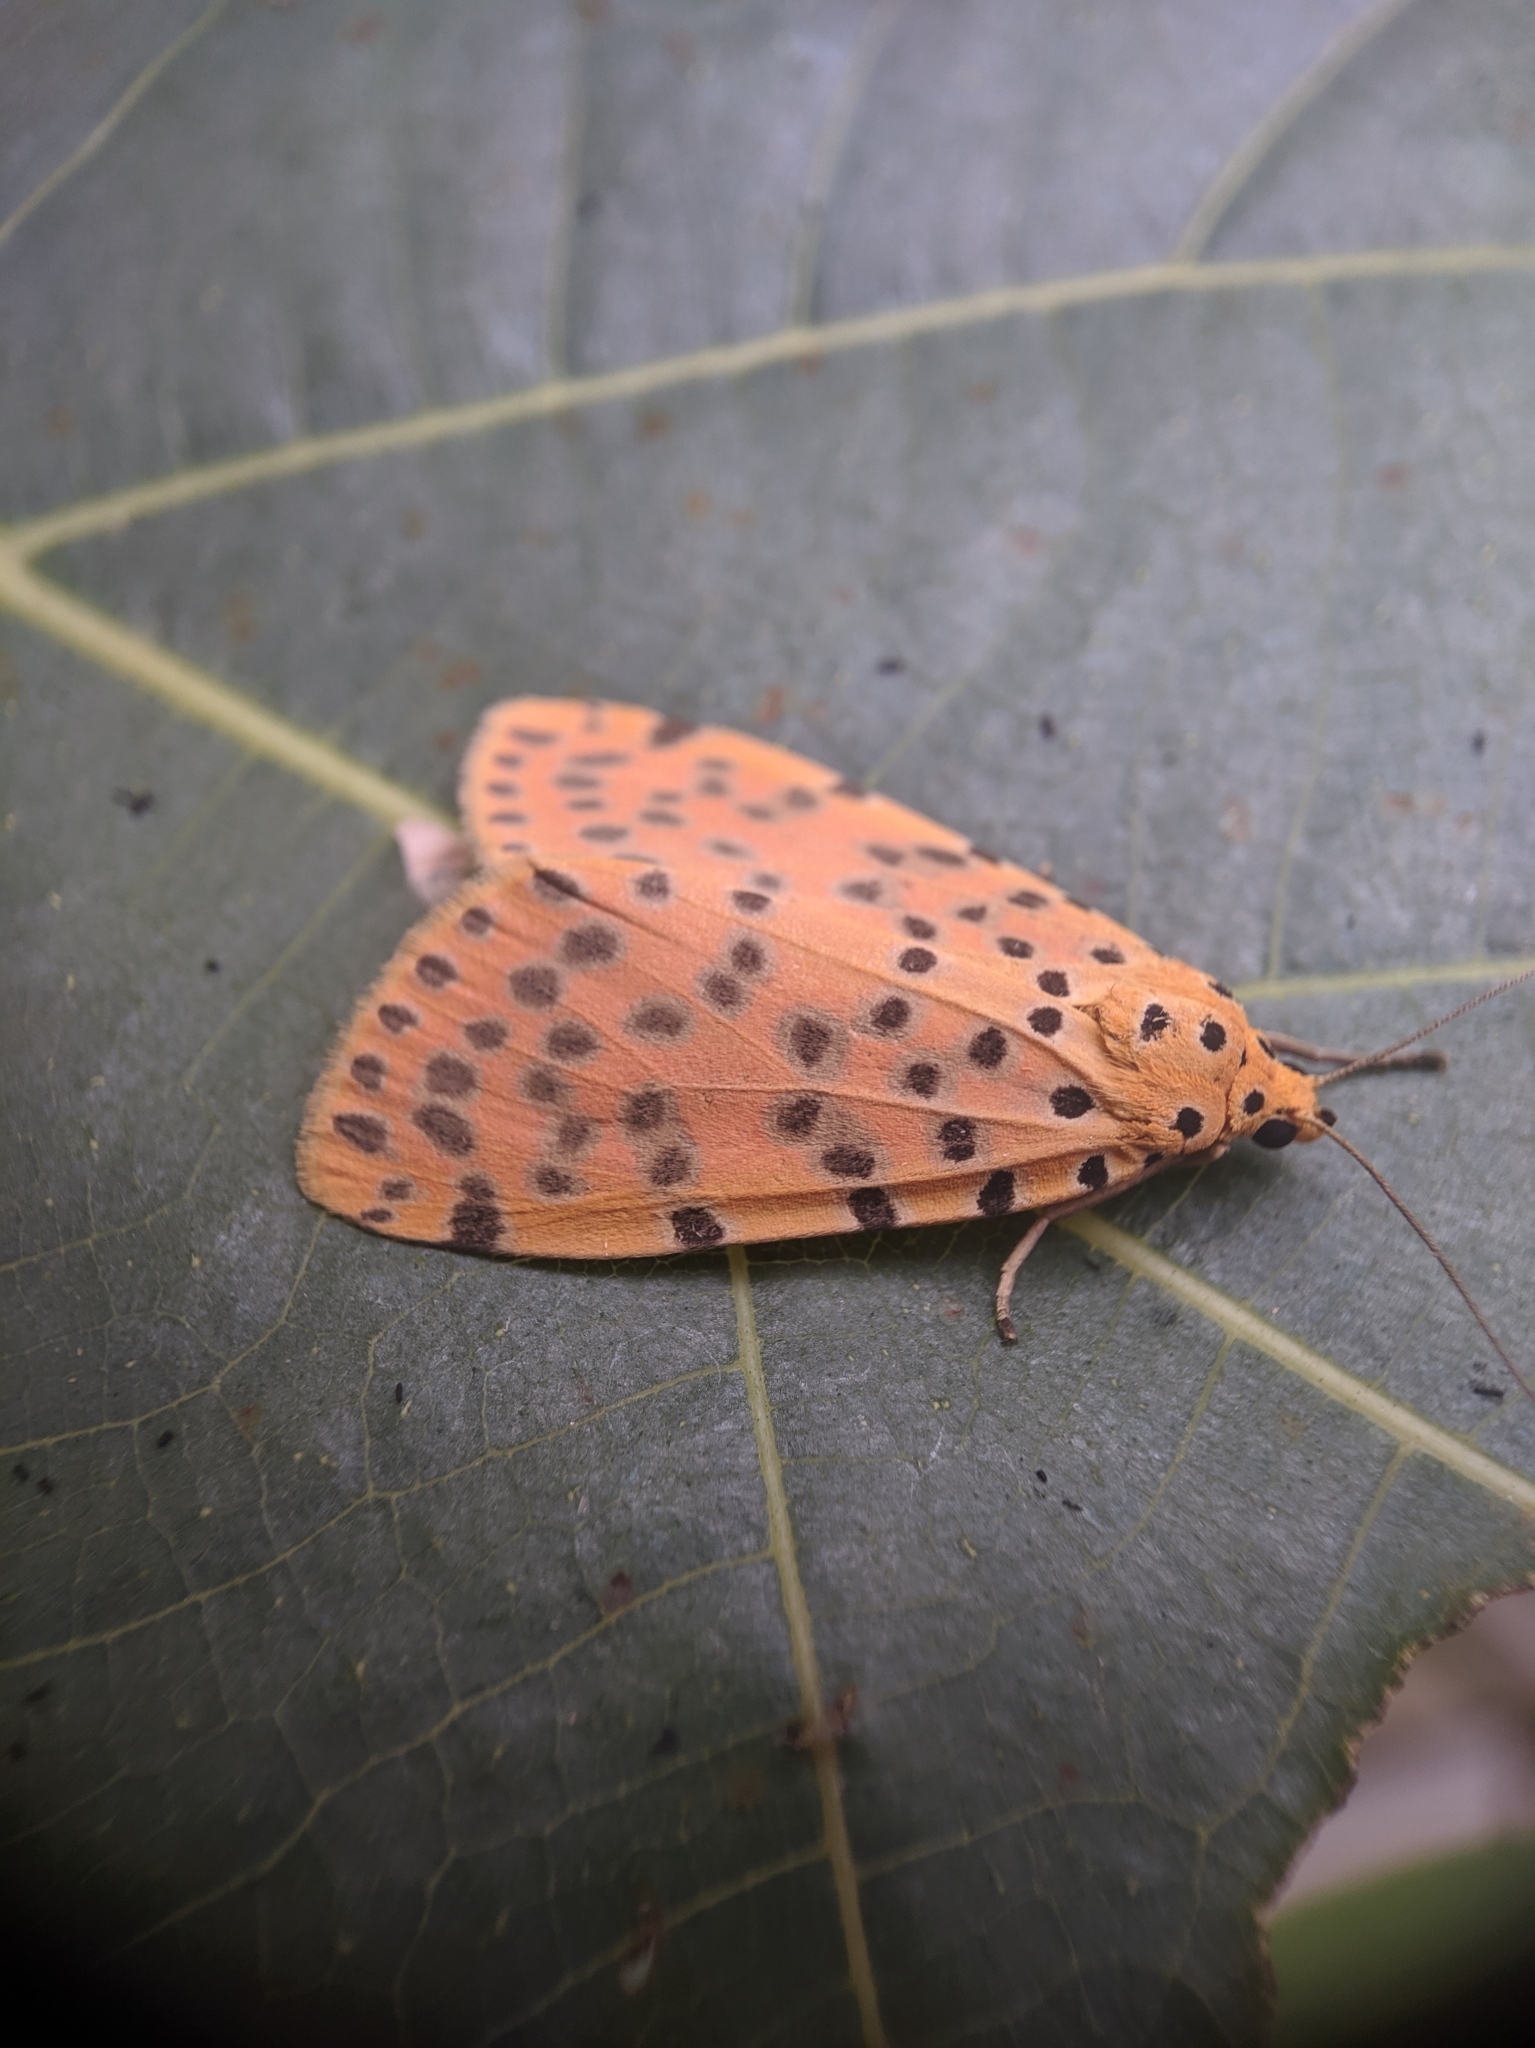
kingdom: Animalia
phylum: Arthropoda
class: Insecta
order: Lepidoptera
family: Erebidae
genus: Argina
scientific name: Argina astrea
